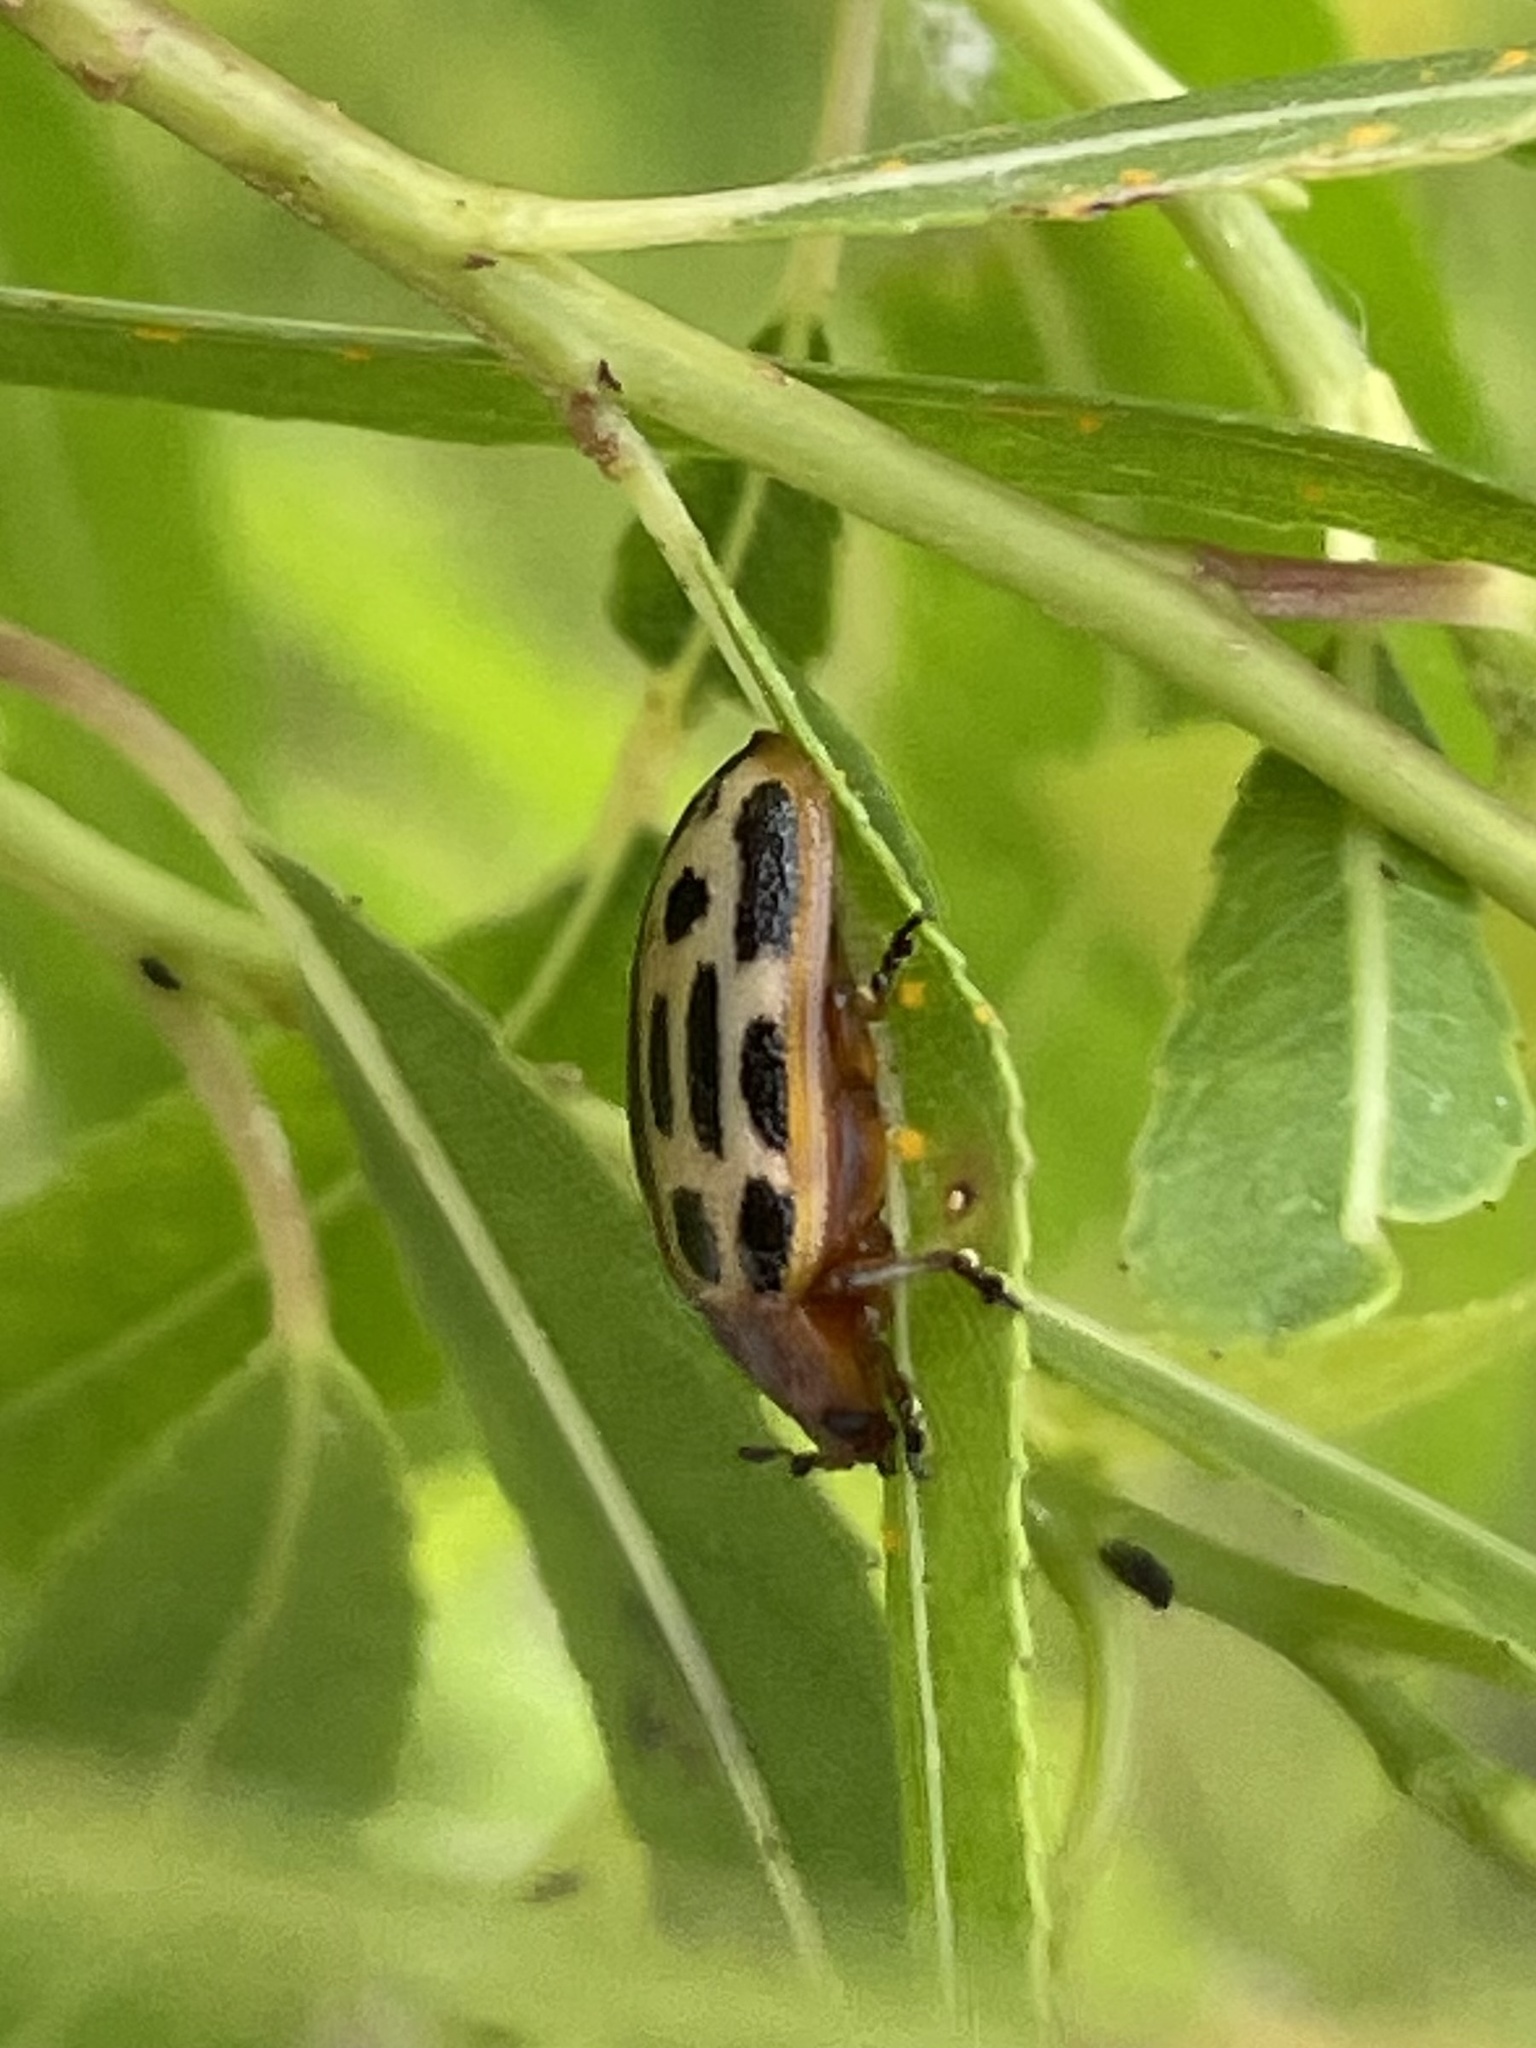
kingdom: Animalia
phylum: Arthropoda
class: Insecta
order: Coleoptera
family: Chrysomelidae
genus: Chrysomela
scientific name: Chrysomela texana
